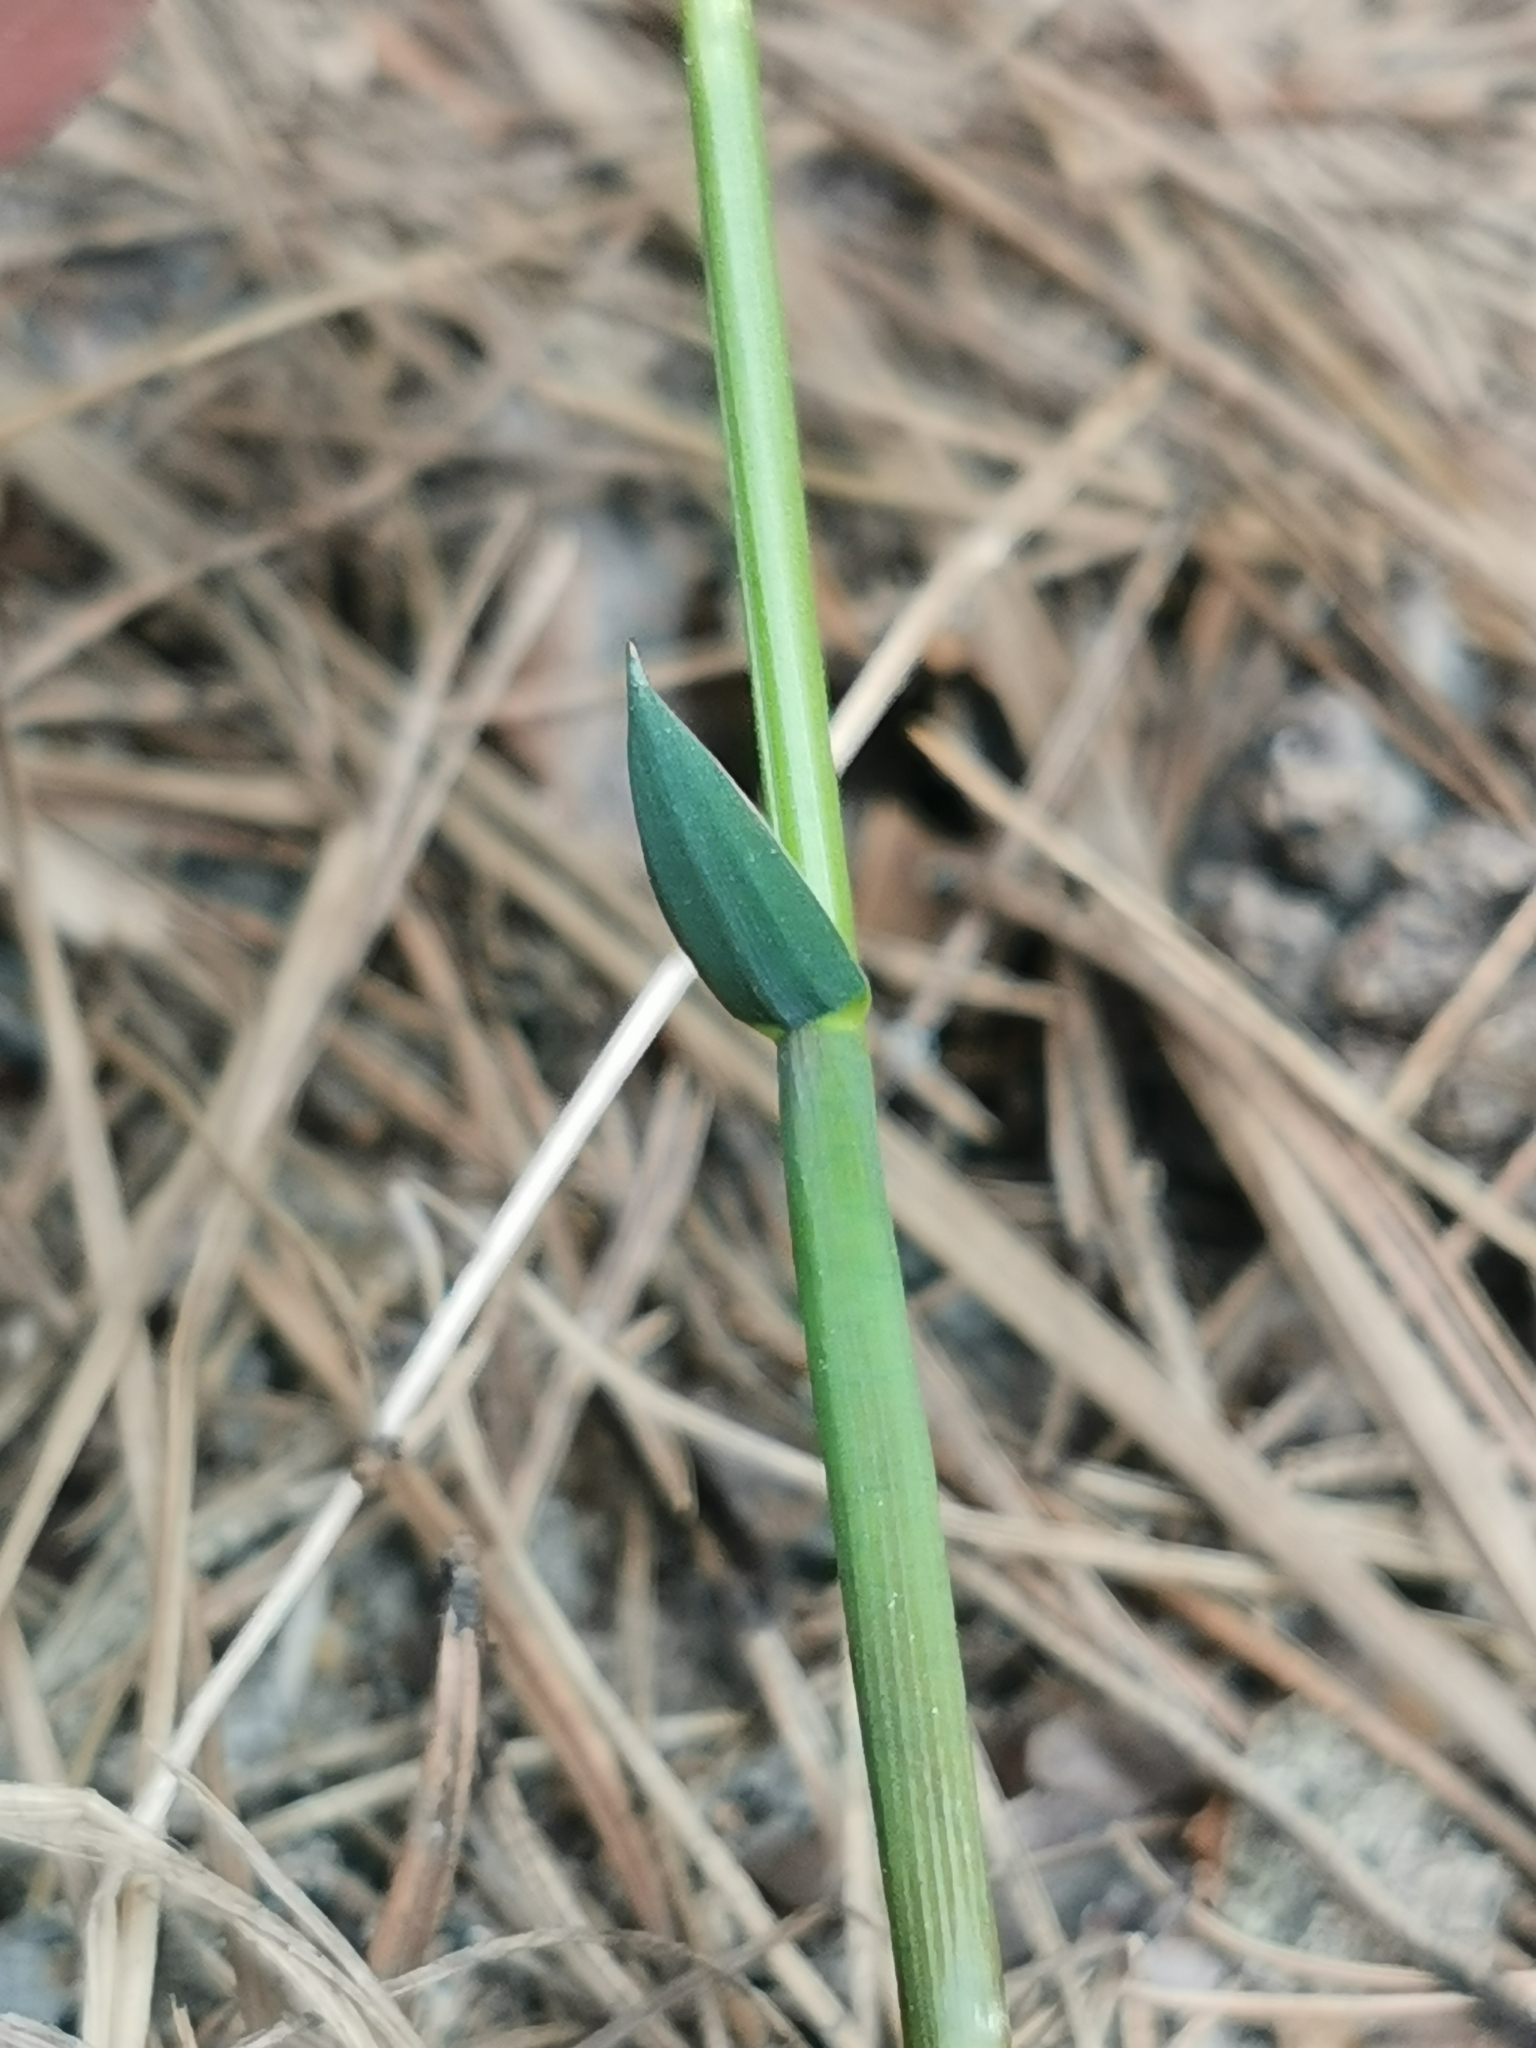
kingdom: Plantae
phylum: Tracheophyta
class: Liliopsida
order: Poales
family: Poaceae
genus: Anthoxanthum
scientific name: Anthoxanthum nitens
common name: Holy grass
